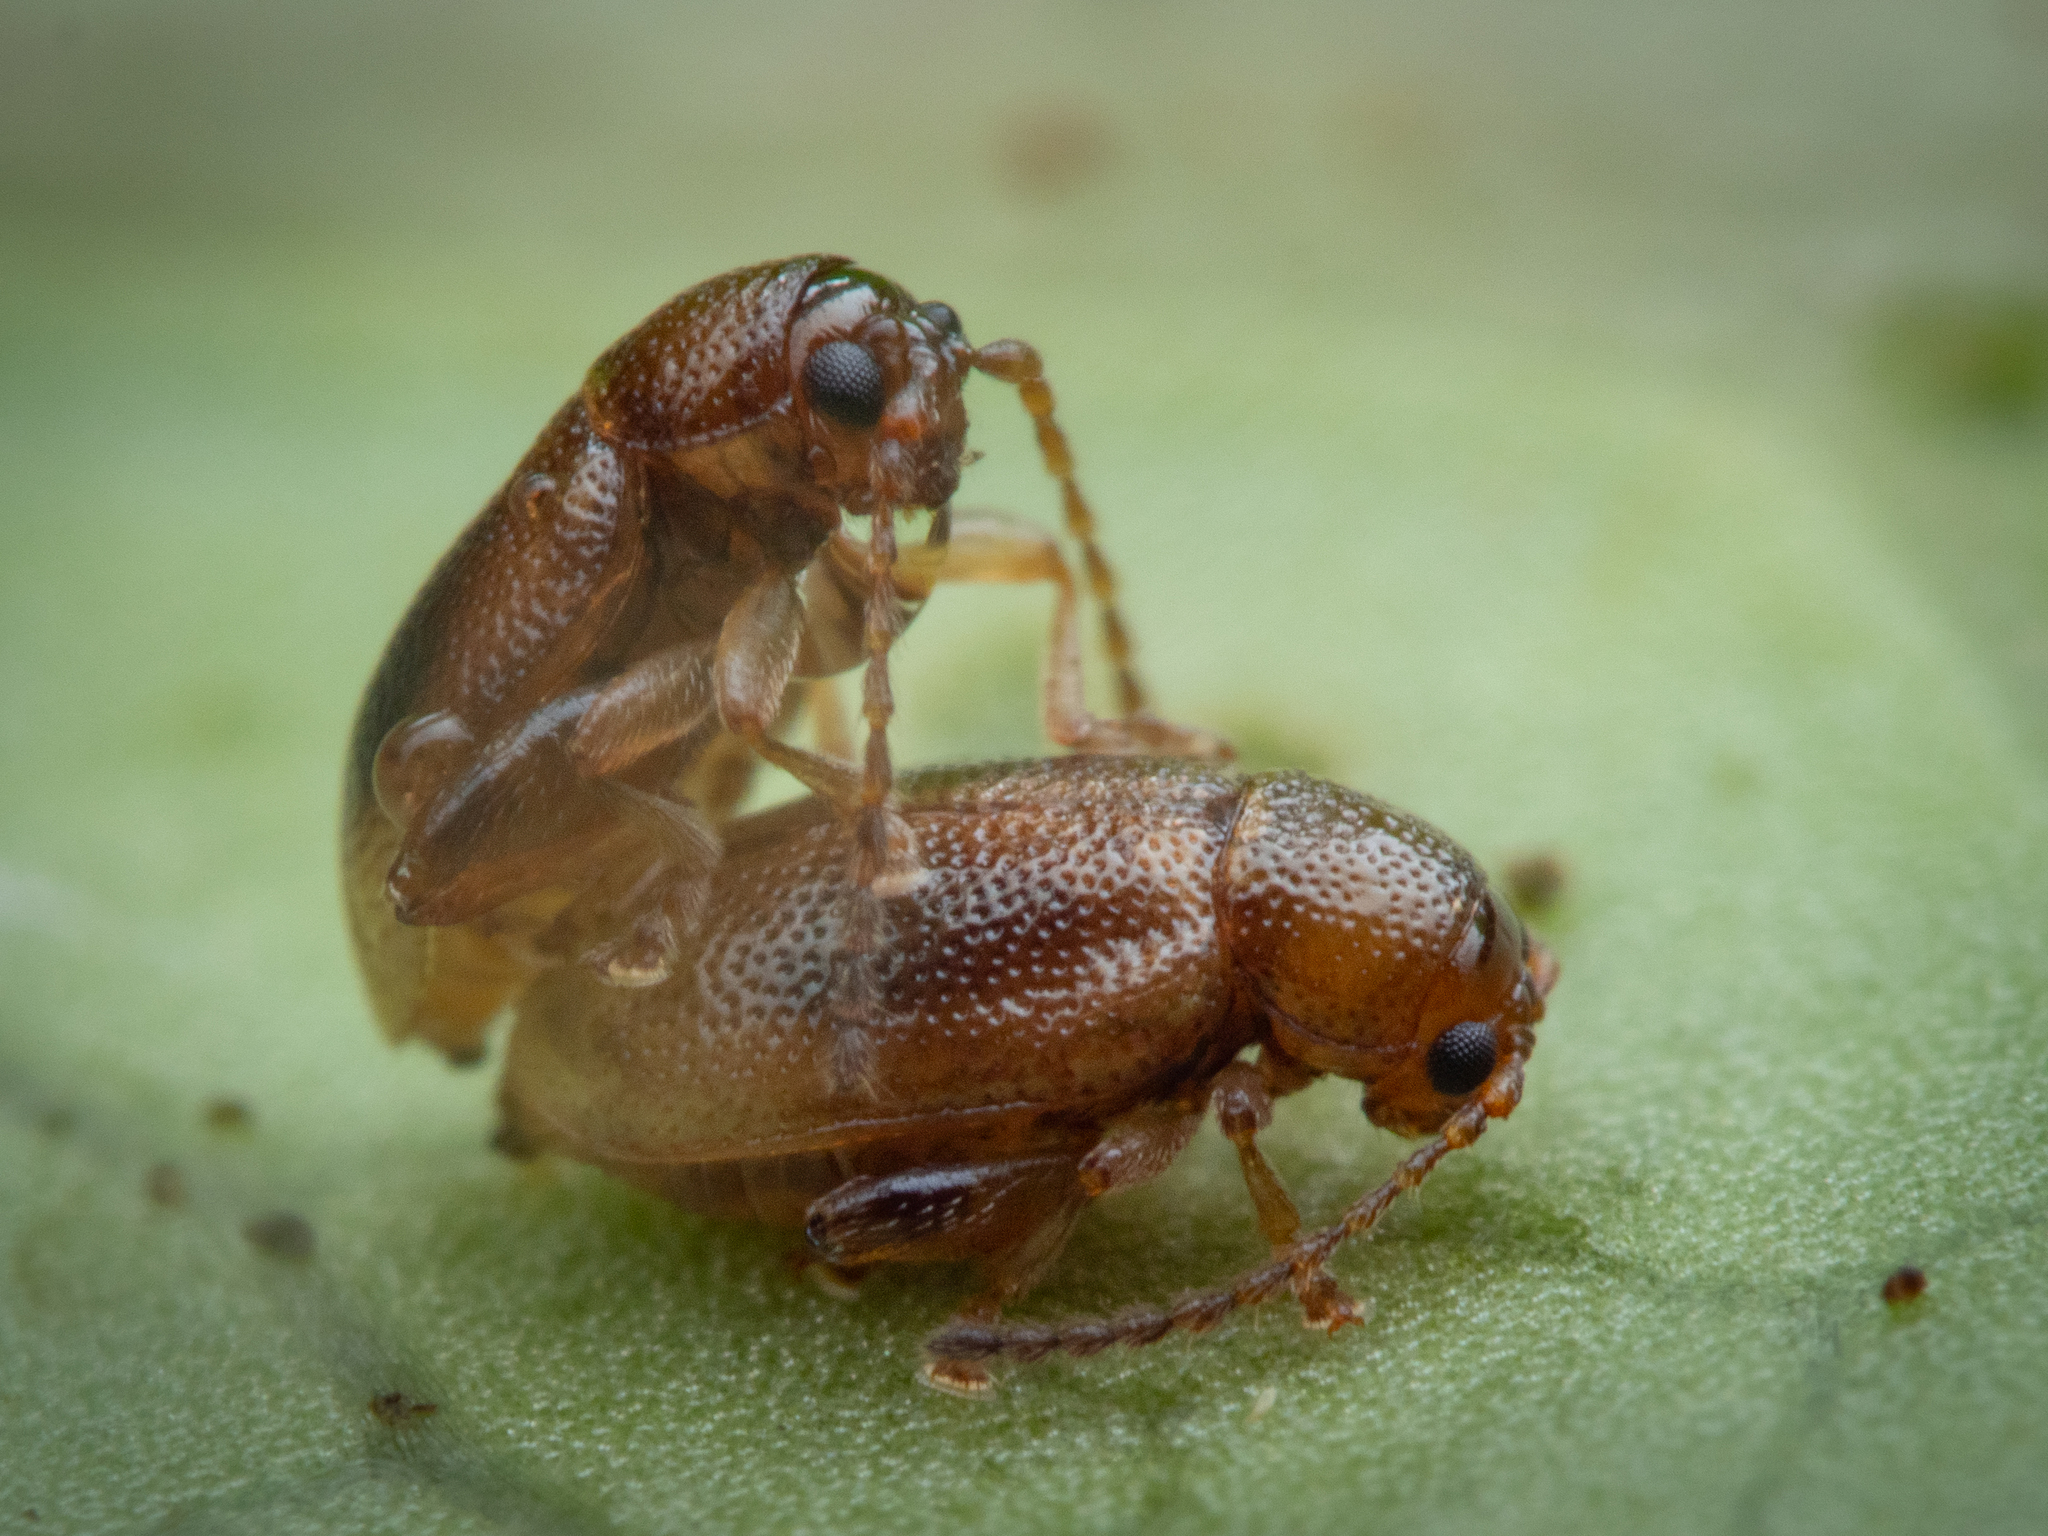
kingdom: Animalia
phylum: Arthropoda
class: Insecta
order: Coleoptera
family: Chrysomelidae
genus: Trachytetra
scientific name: Trachytetra
